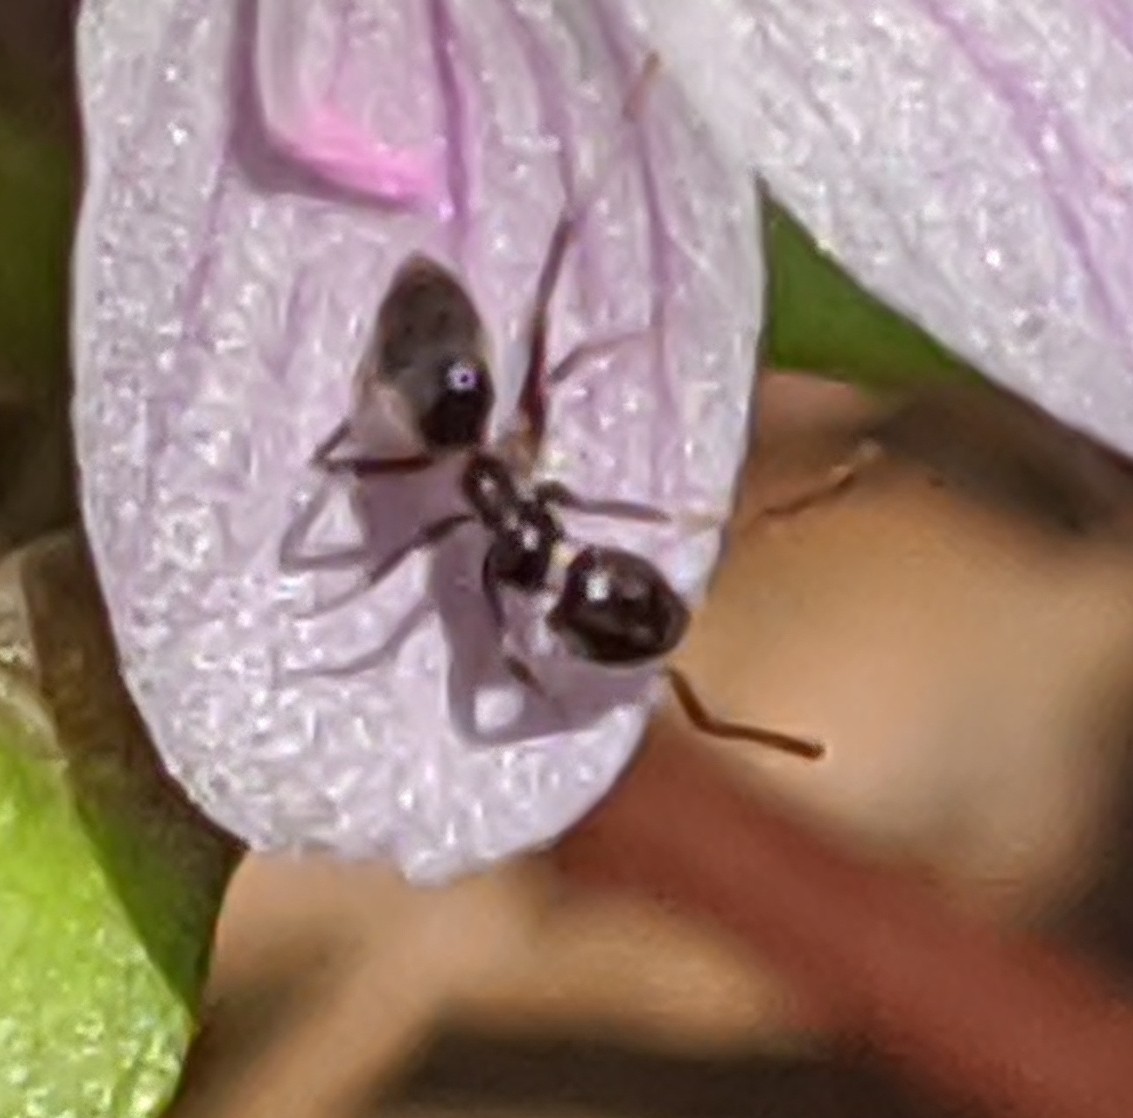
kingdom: Animalia
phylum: Arthropoda
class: Insecta
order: Hymenoptera
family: Formicidae
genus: Tapinoma
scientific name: Tapinoma sessile
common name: Odorous house ant
